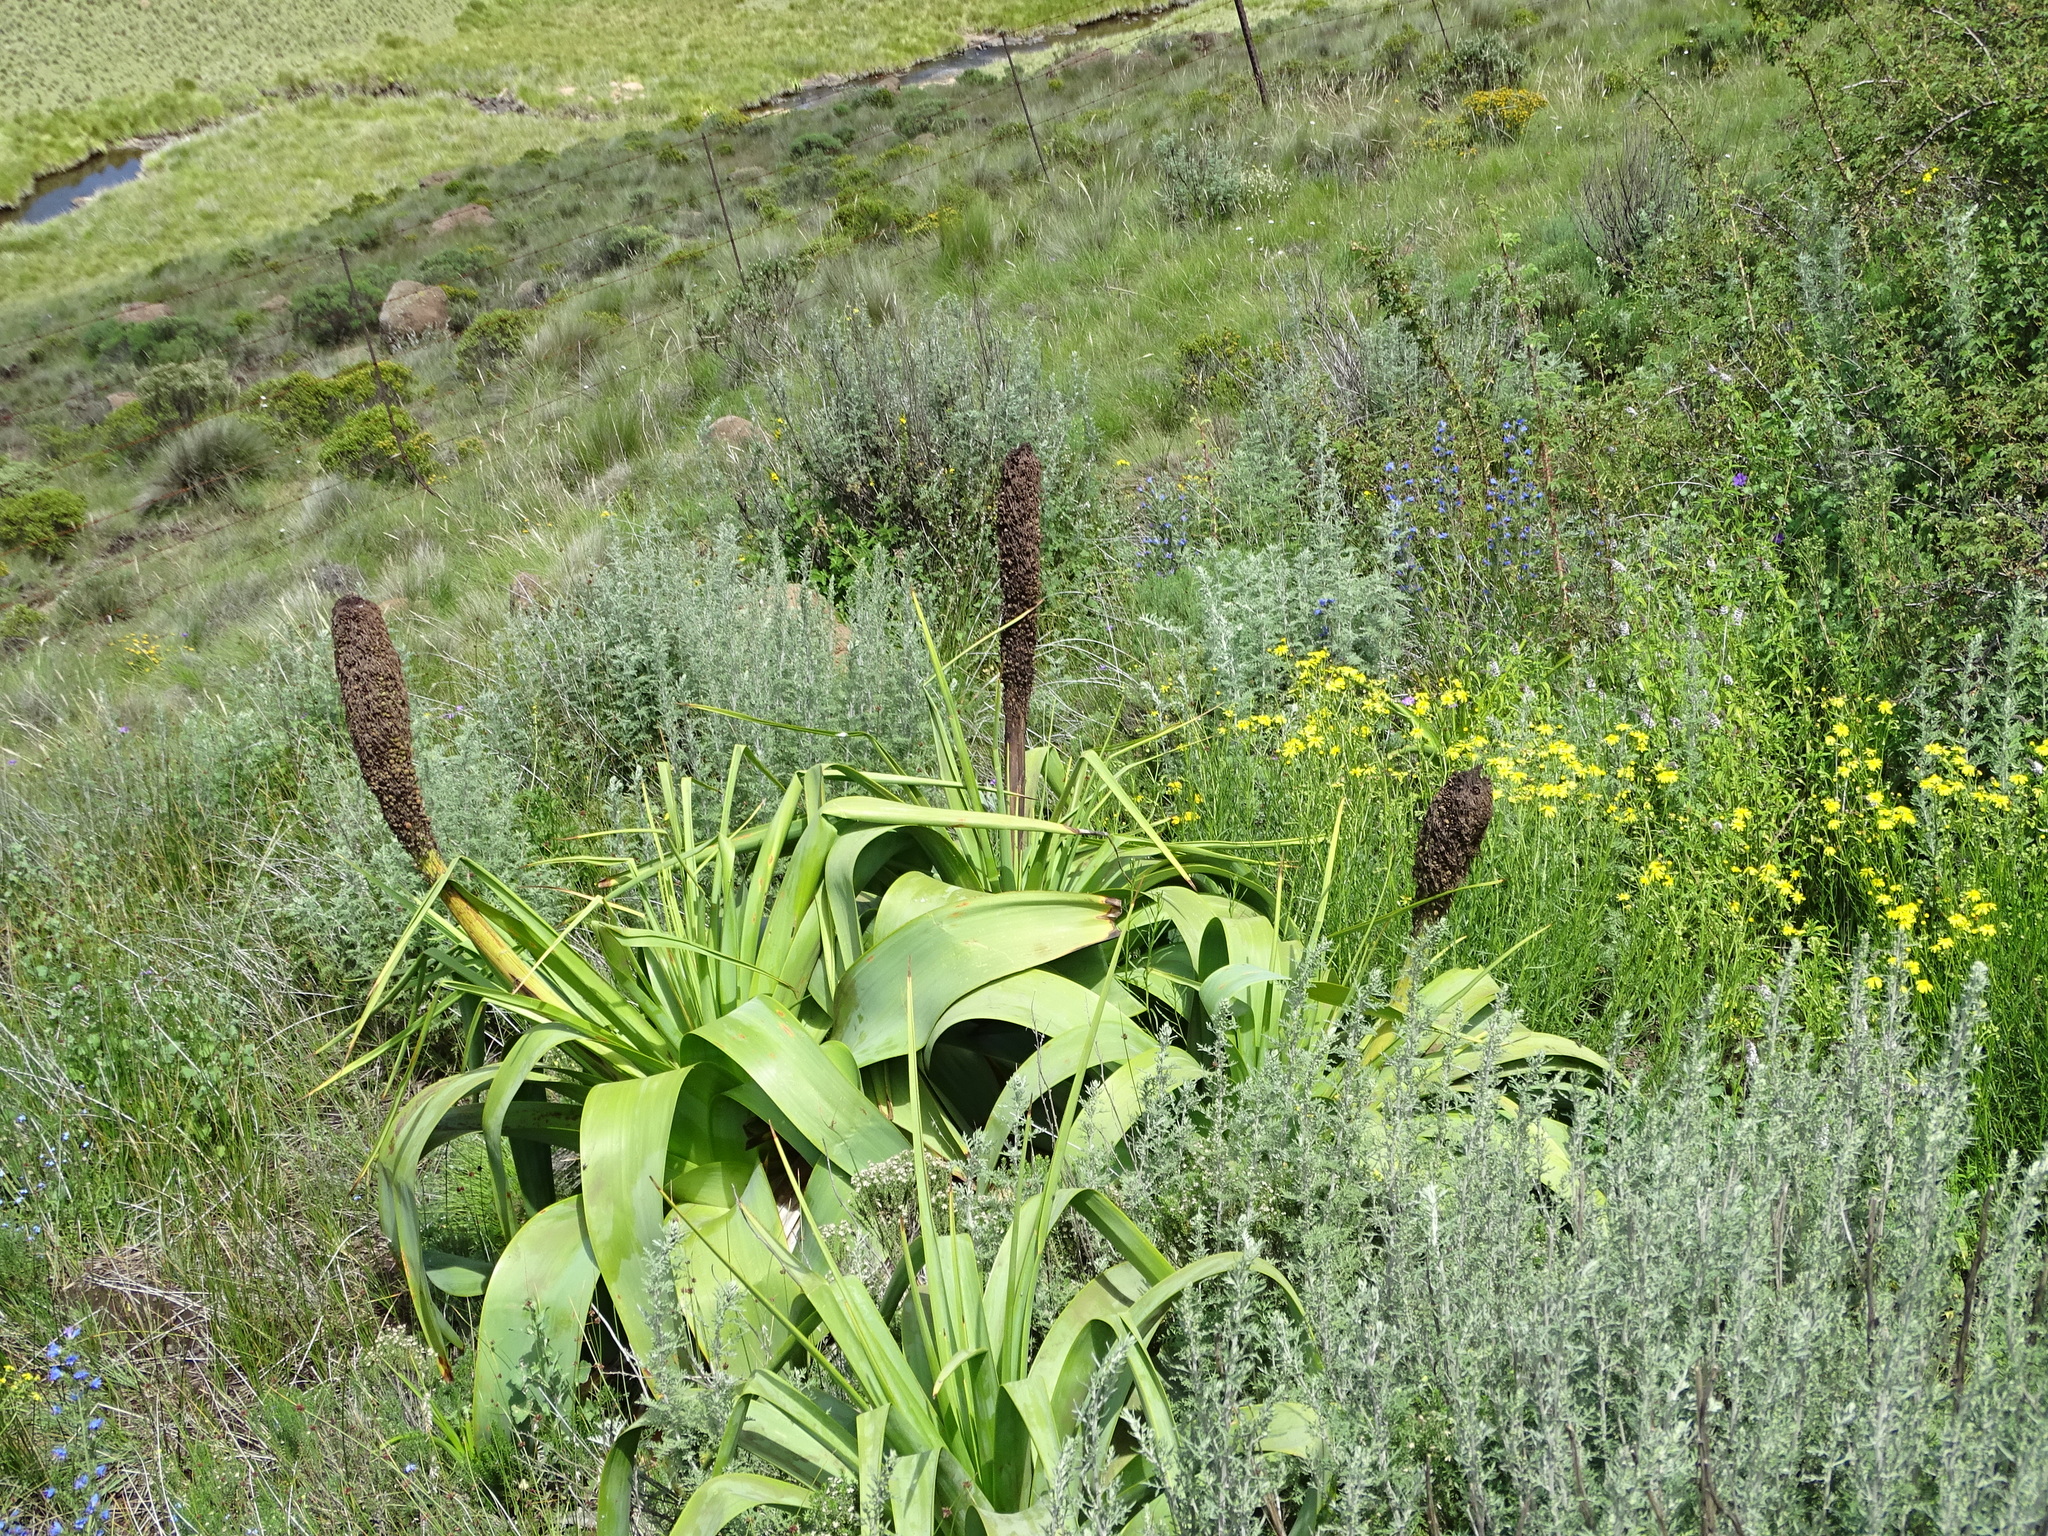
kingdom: Plantae
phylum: Tracheophyta
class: Liliopsida
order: Asparagales
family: Asphodelaceae
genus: Kniphofia
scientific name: Kniphofia northiae
